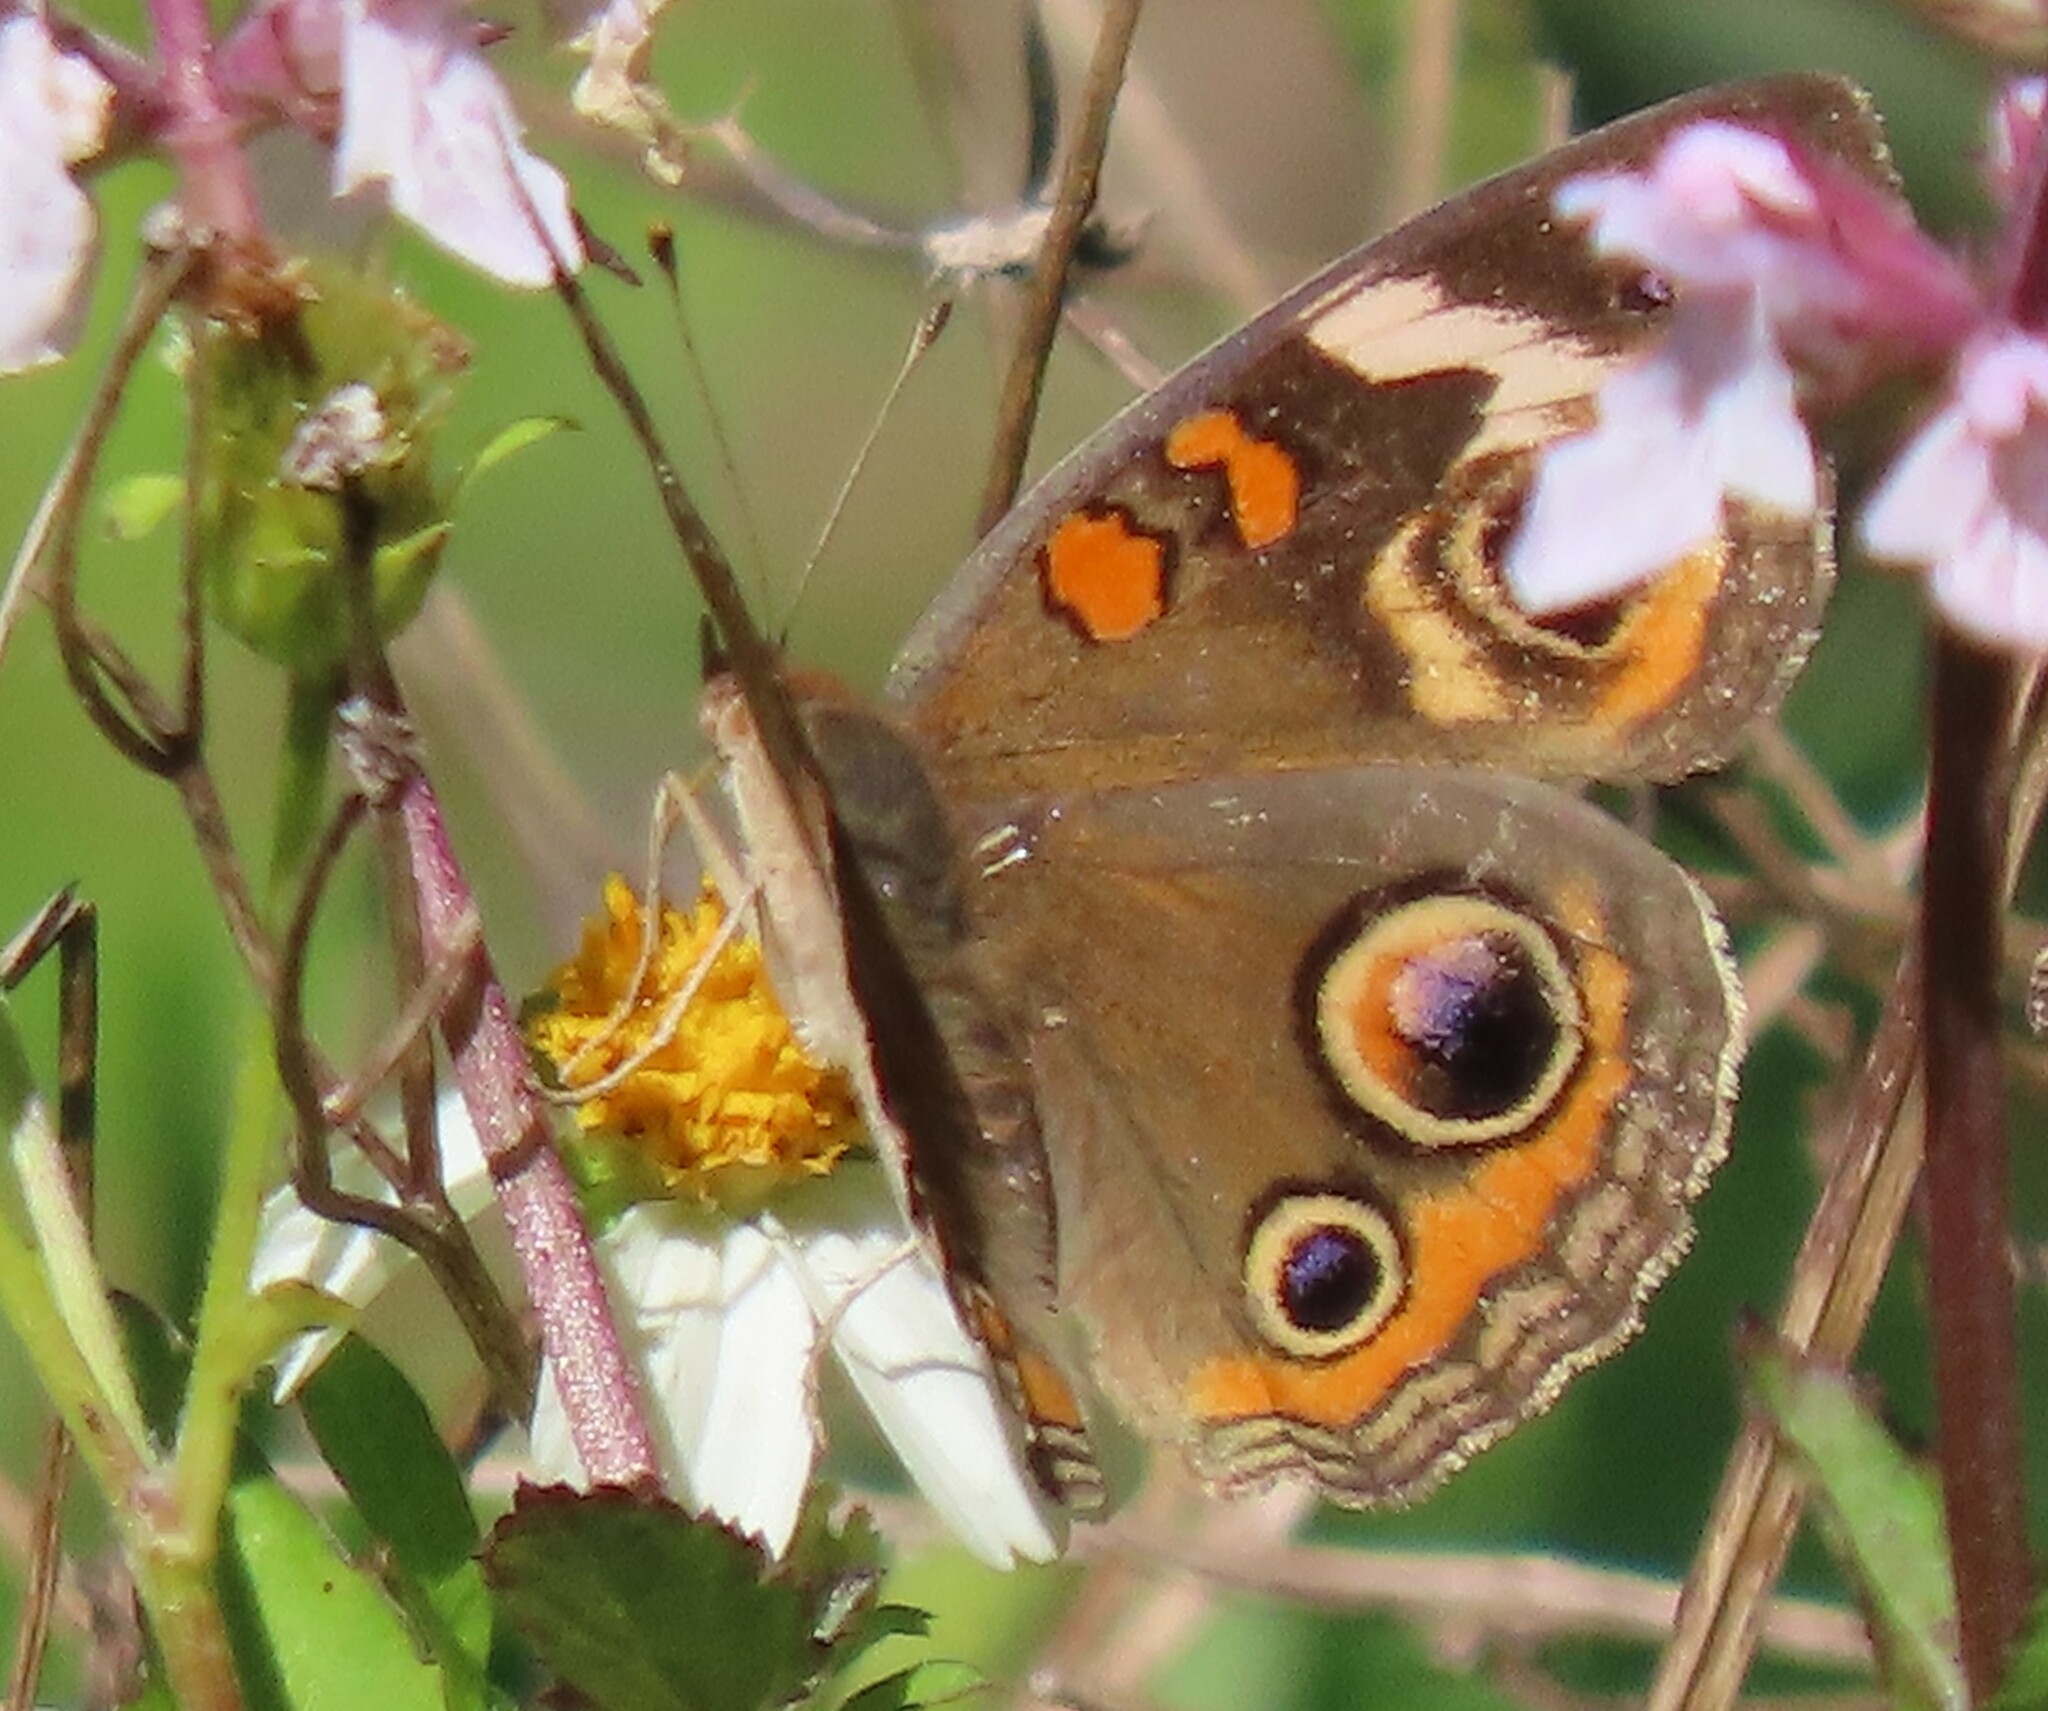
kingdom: Animalia
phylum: Arthropoda
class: Insecta
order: Lepidoptera
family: Nymphalidae
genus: Junonia
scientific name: Junonia coenia
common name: Common buckeye
